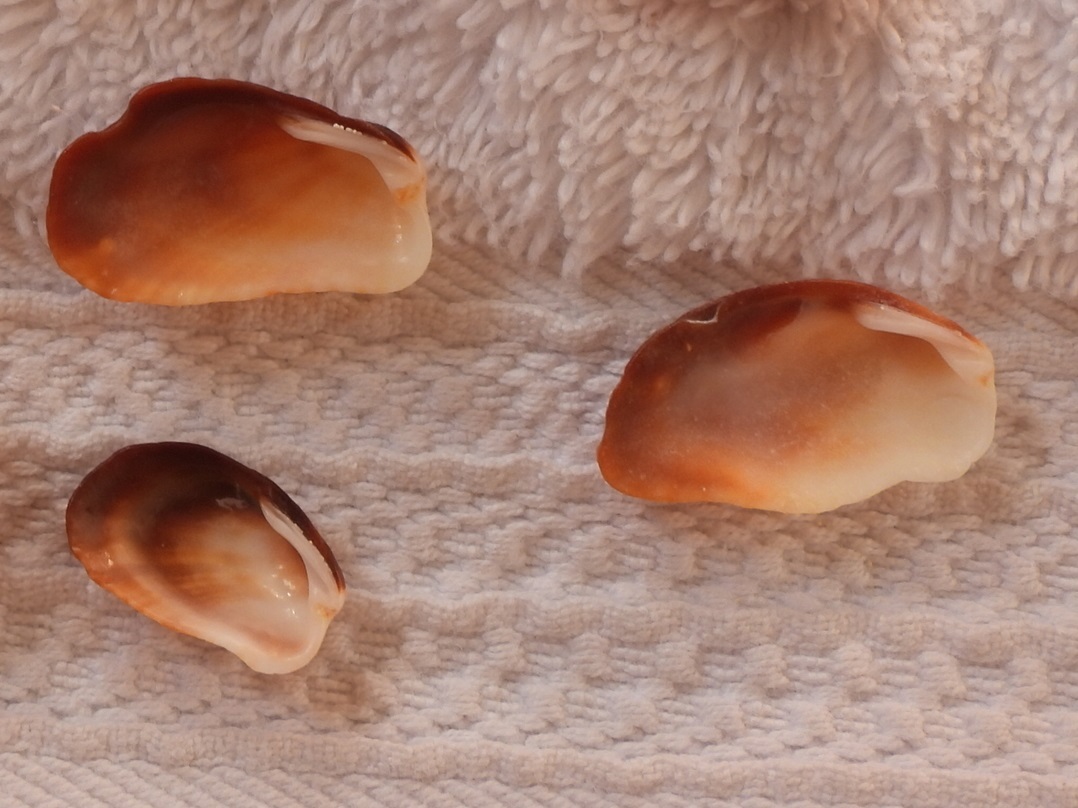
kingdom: Animalia
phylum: Mollusca
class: Bivalvia
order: Carditida
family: Carditidae
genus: Beguina
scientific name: Beguina gubernaculum
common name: Rudder cardita
